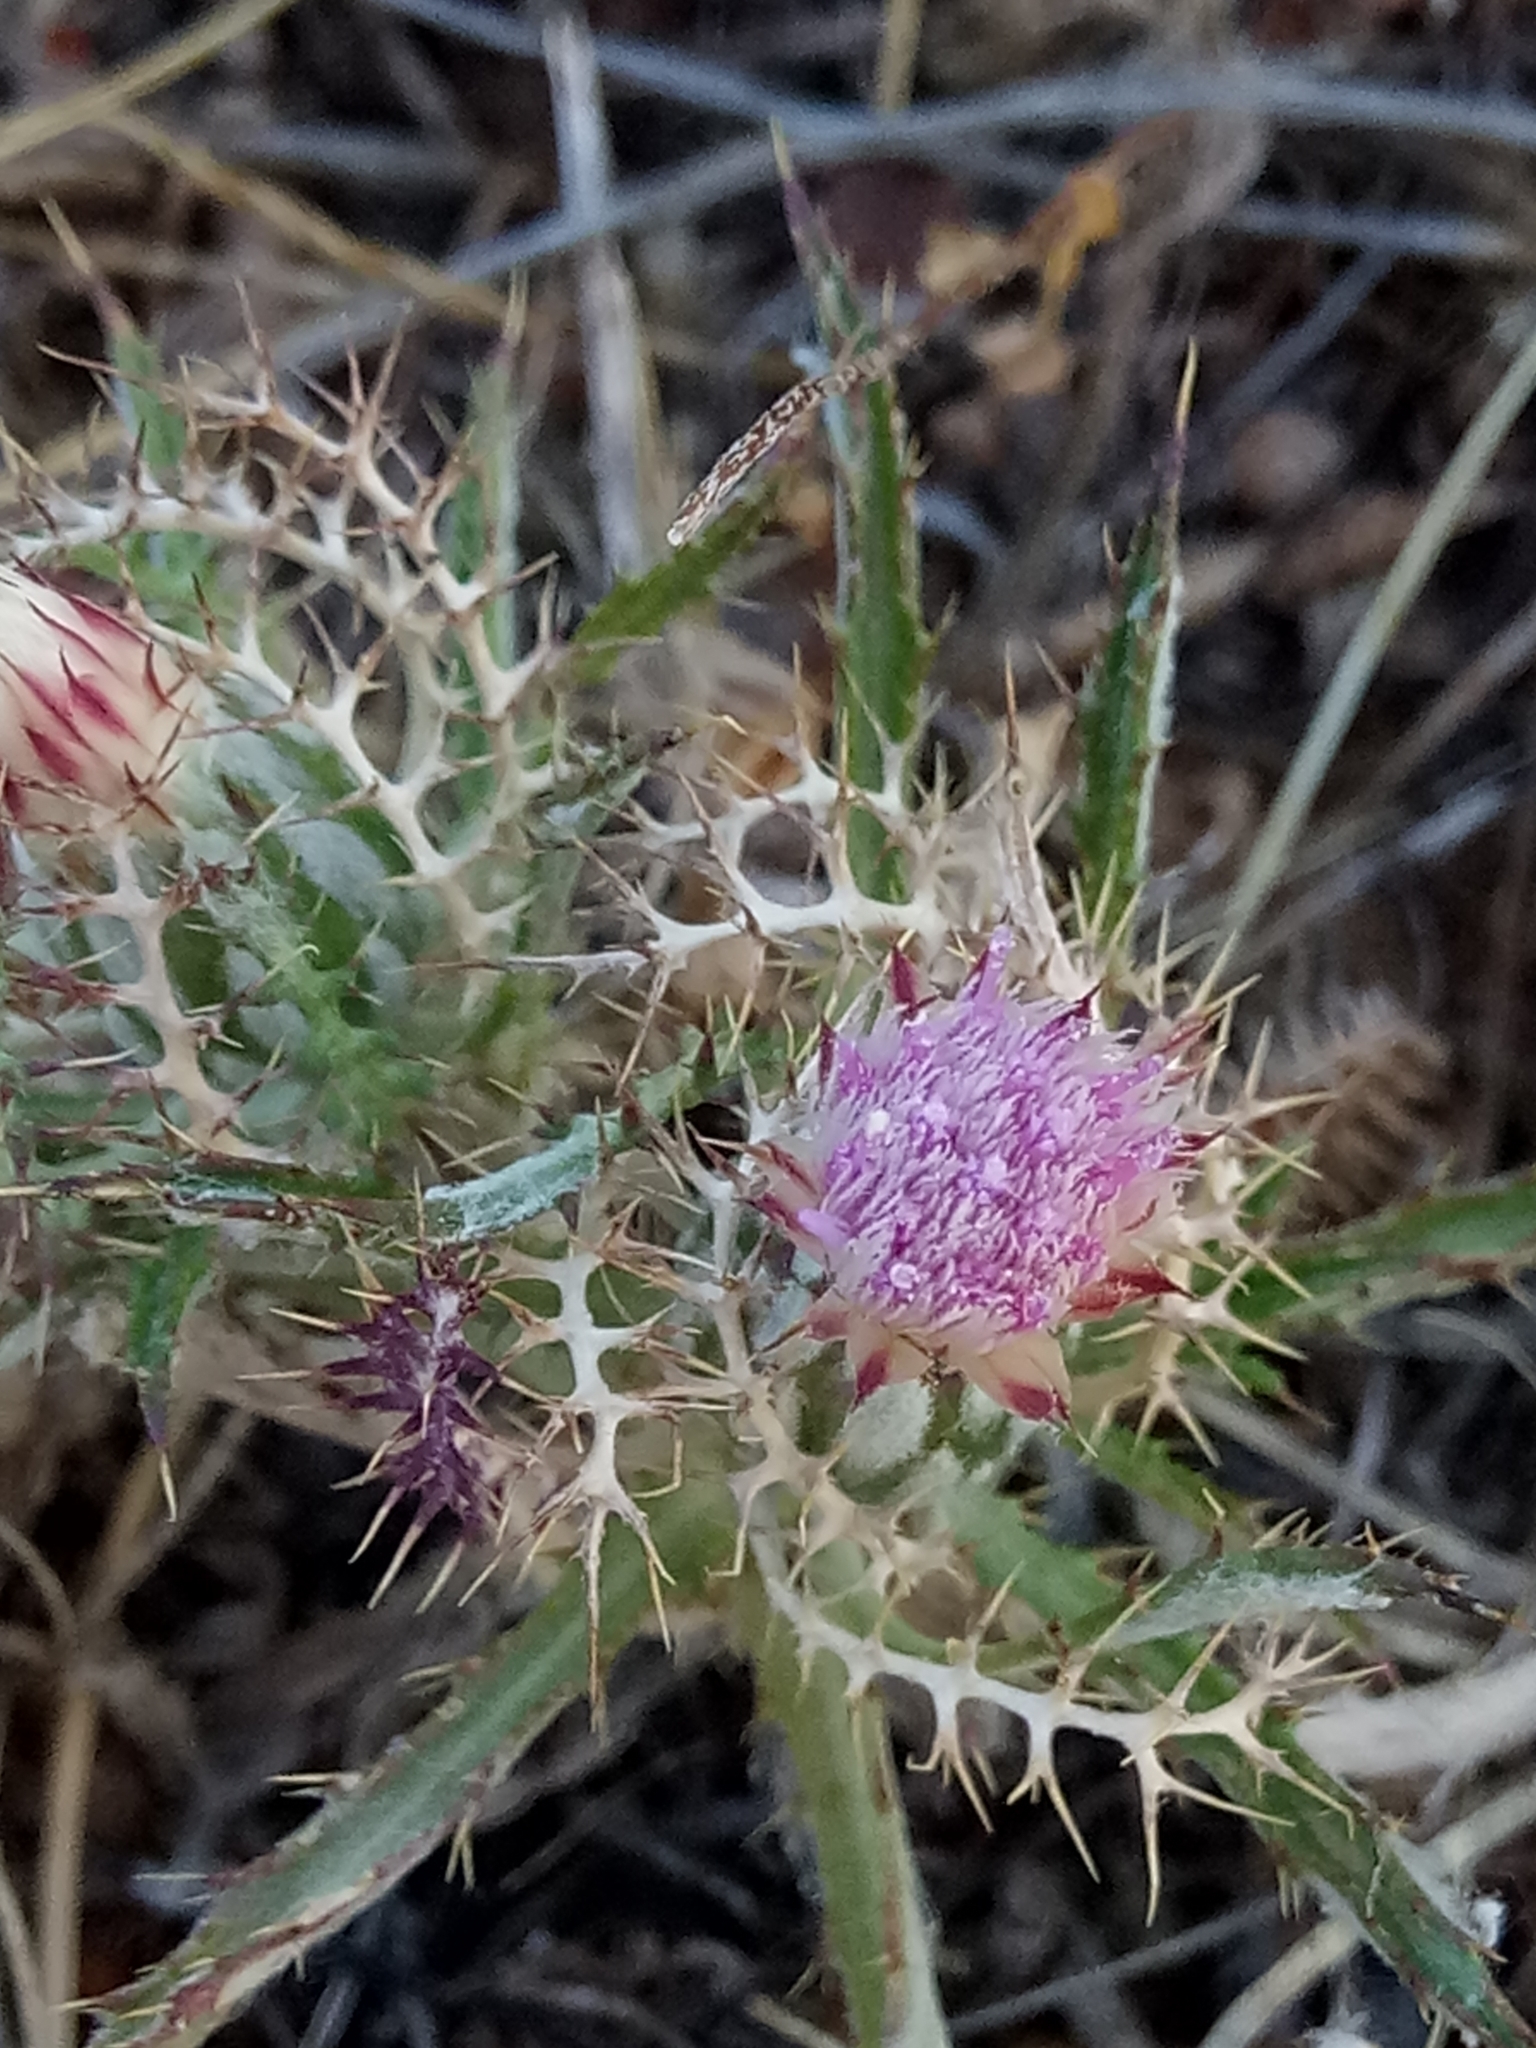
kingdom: Plantae
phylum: Tracheophyta
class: Magnoliopsida
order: Asterales
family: Asteraceae
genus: Atractylis
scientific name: Atractylis cancellata
